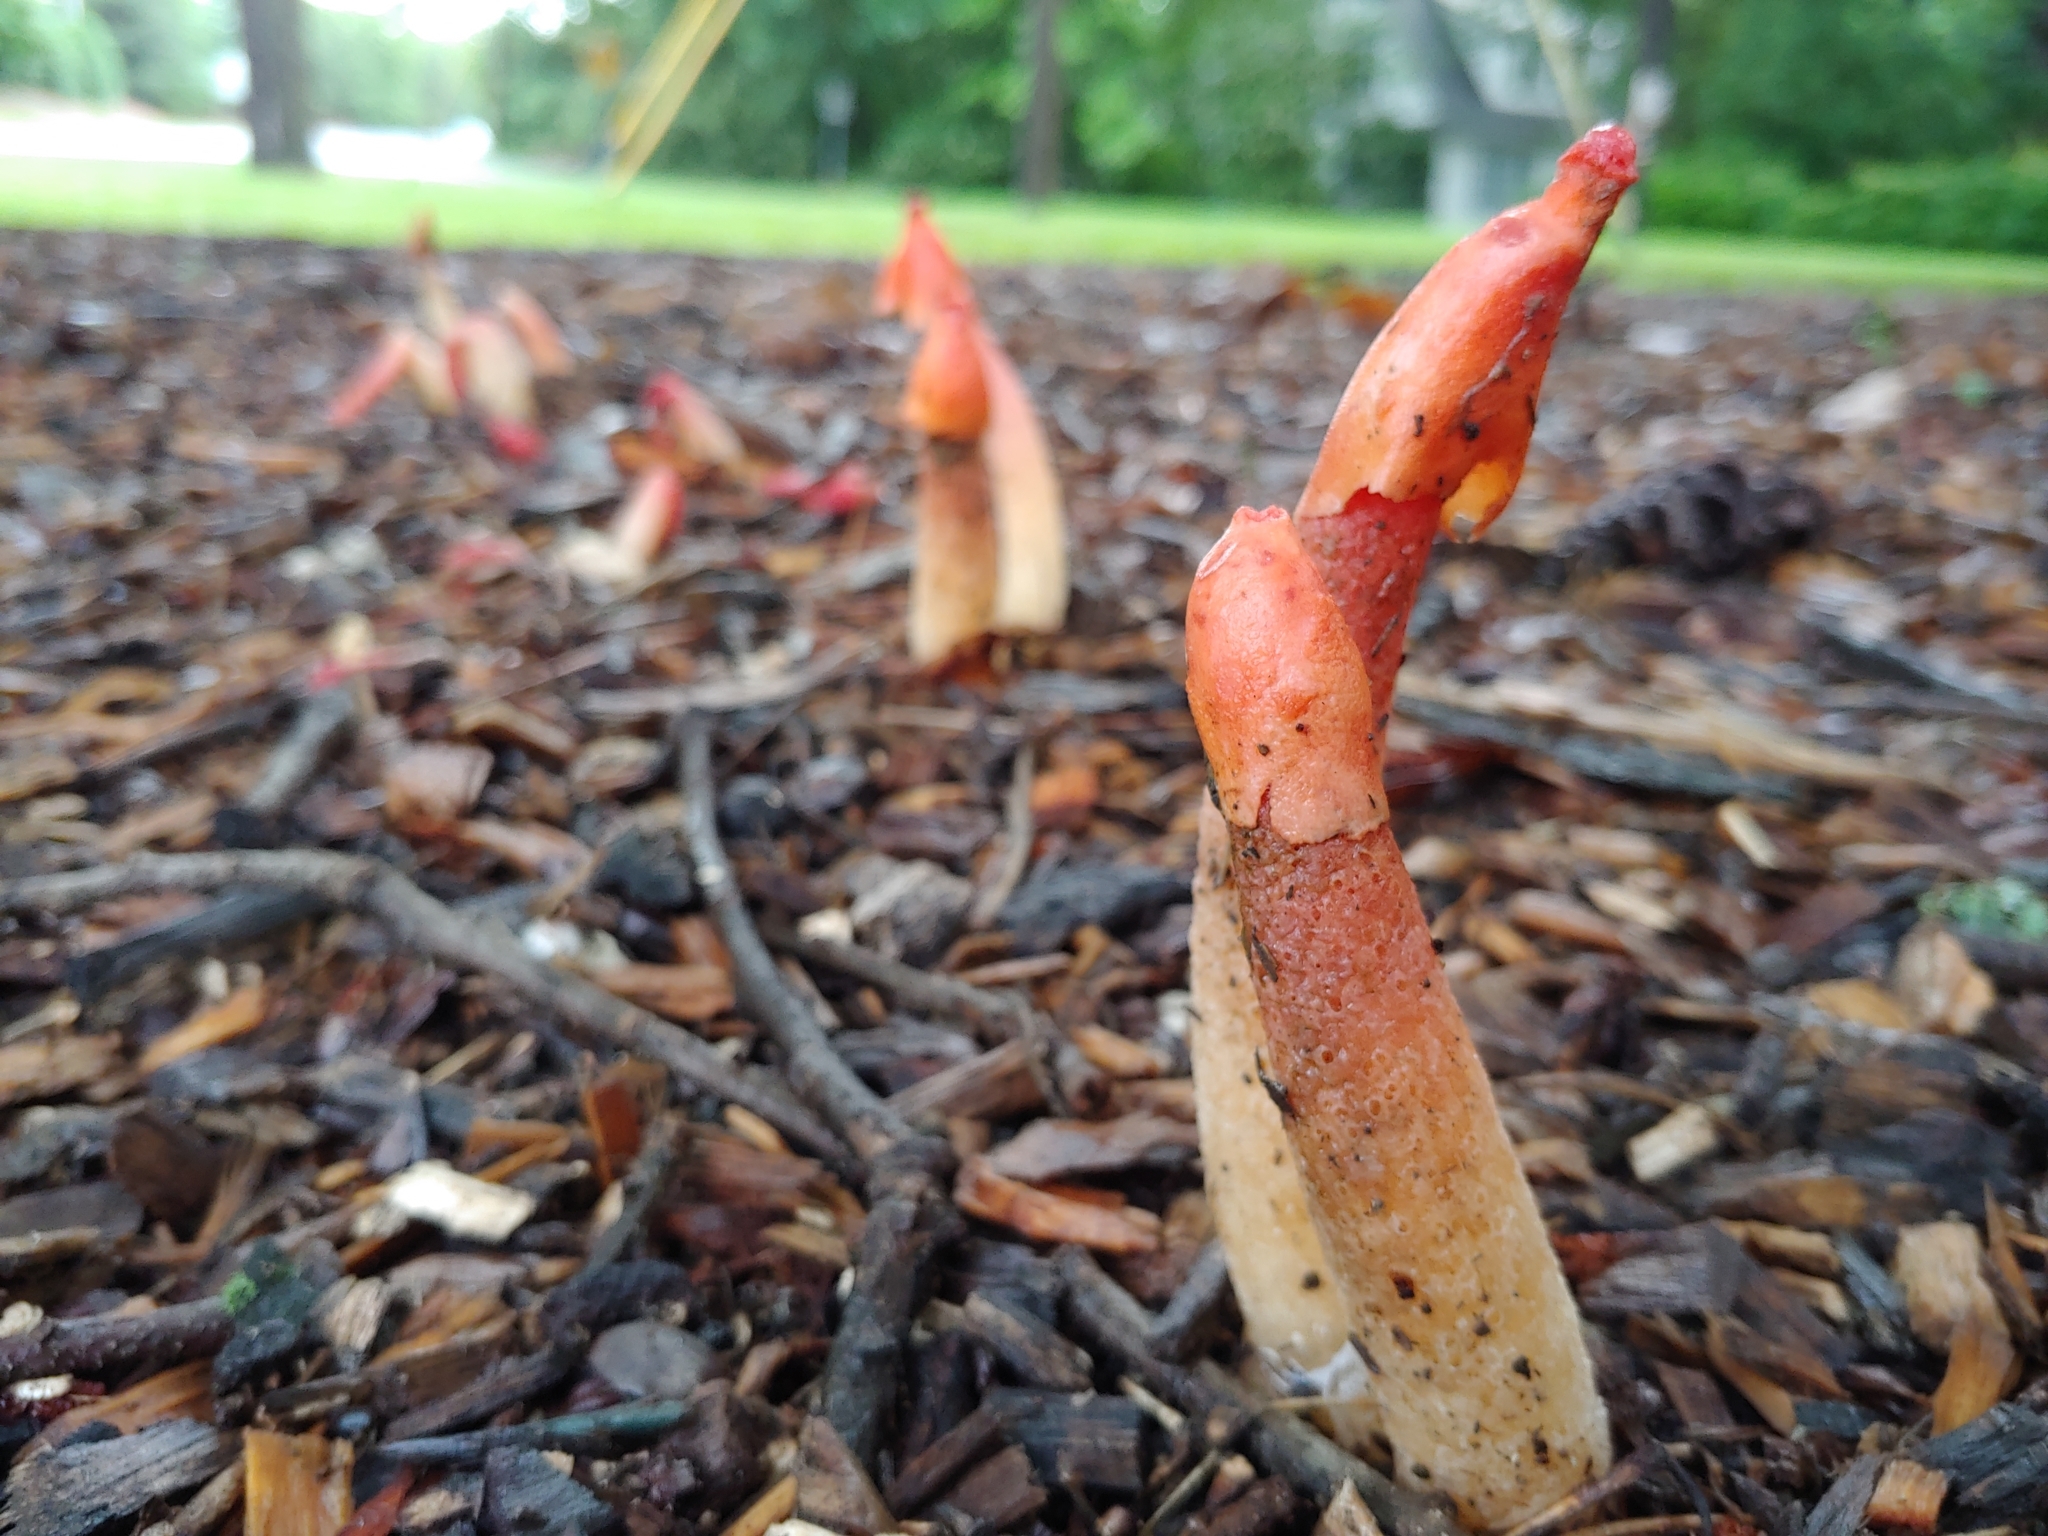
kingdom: Fungi
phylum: Basidiomycota
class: Agaricomycetes
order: Phallales
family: Phallaceae
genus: Phallus
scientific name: Phallus rugulosus
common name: Wrinkly stinkhorn
